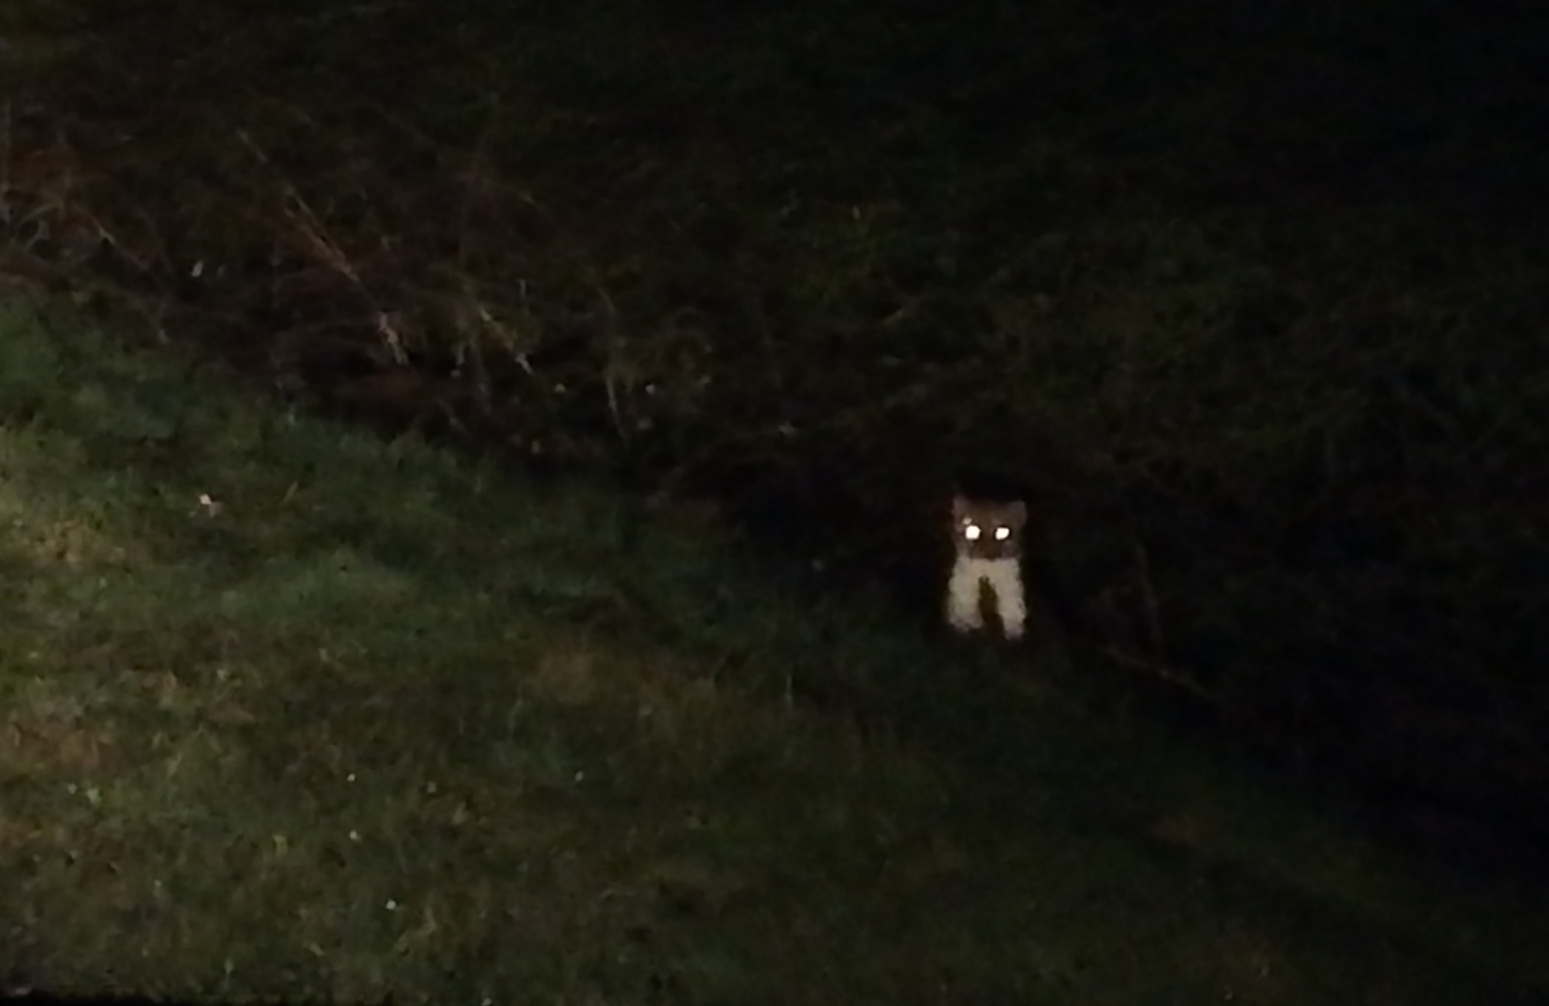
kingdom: Animalia
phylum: Chordata
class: Mammalia
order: Carnivora
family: Mustelidae
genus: Martes
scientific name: Martes foina
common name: Beech marten
